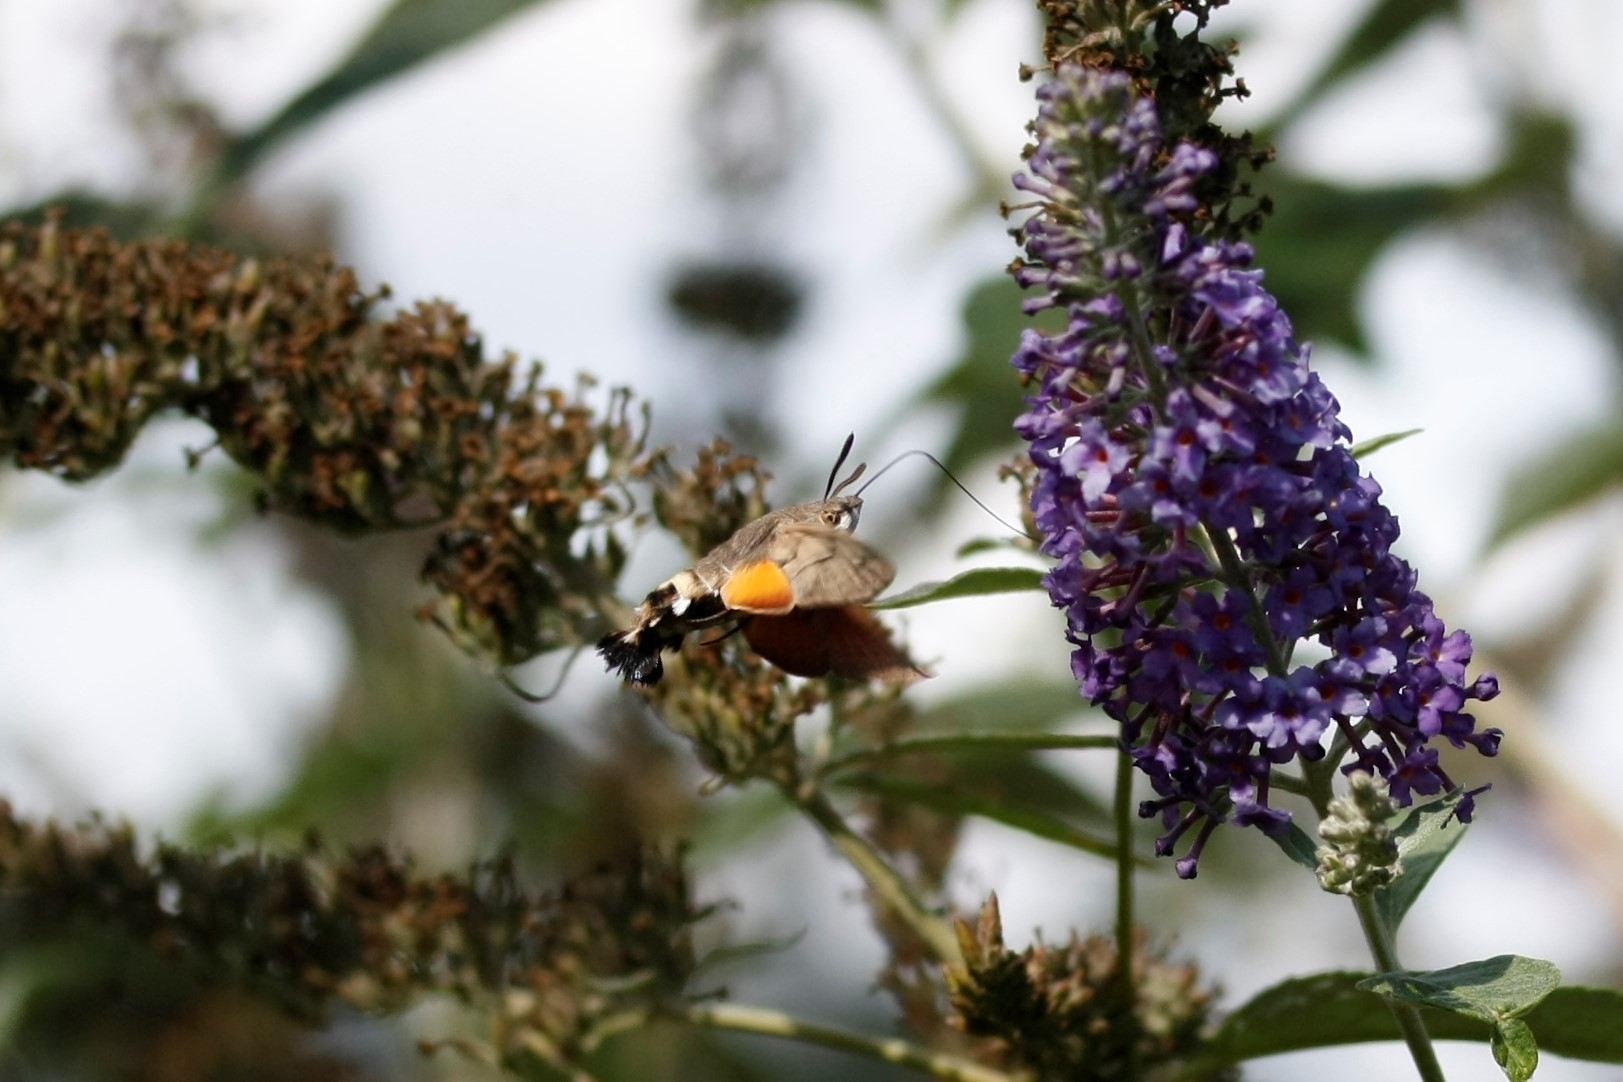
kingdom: Animalia
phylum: Arthropoda
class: Insecta
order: Lepidoptera
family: Sphingidae
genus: Macroglossum
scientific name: Macroglossum stellatarum
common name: Humming-bird hawk-moth
